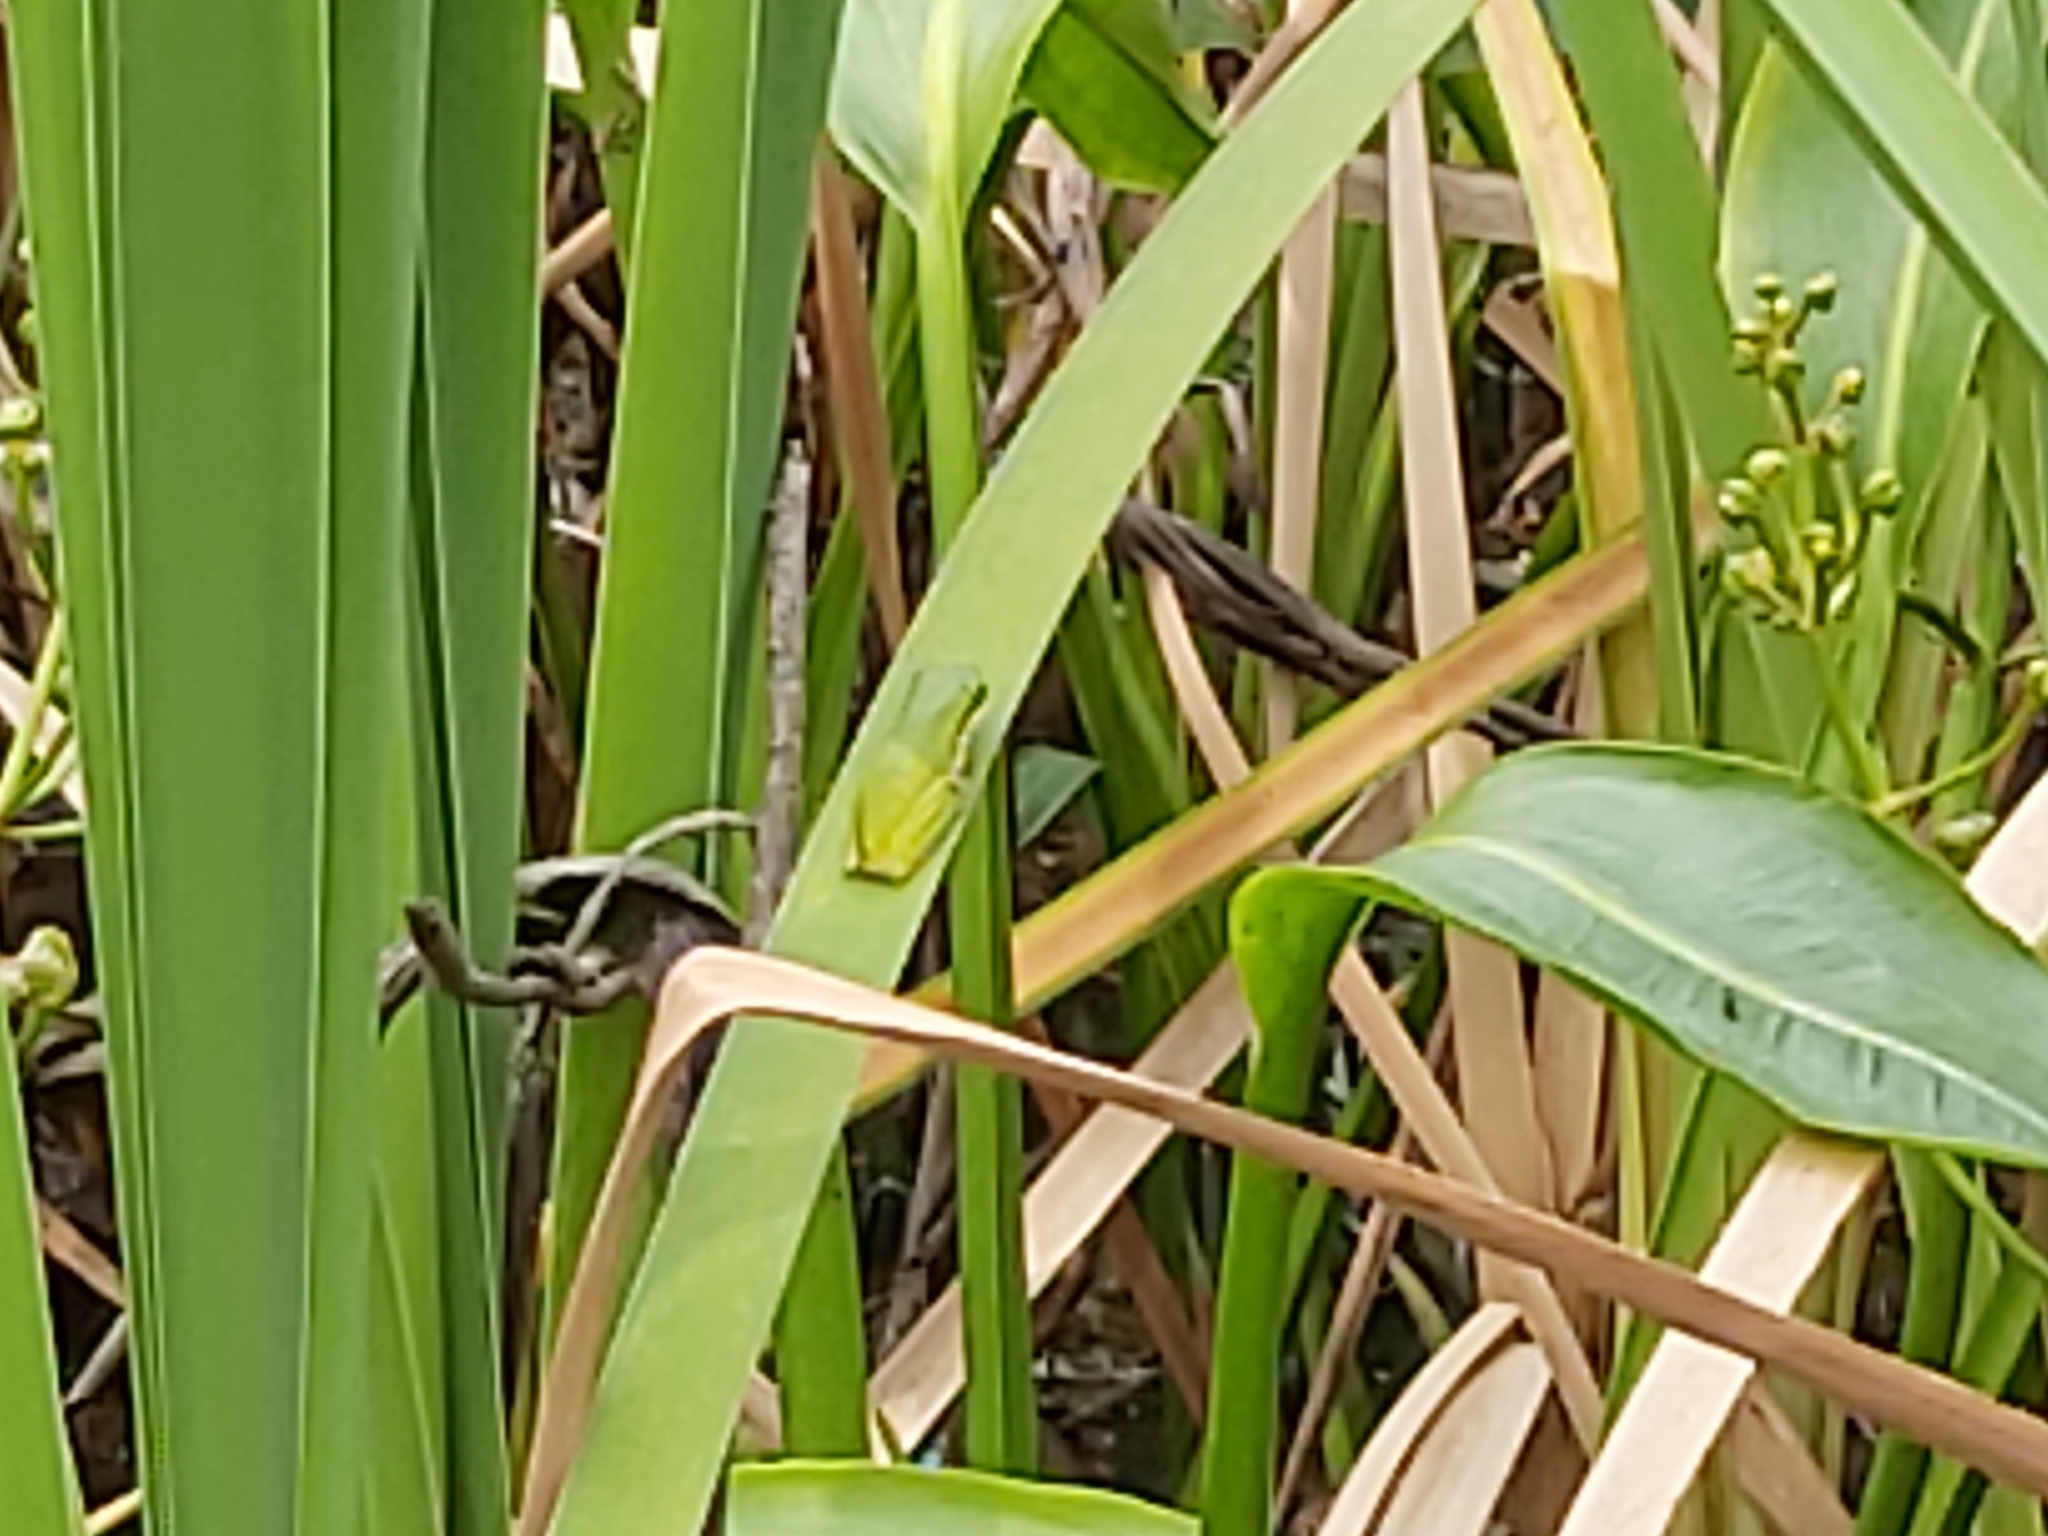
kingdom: Animalia
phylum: Chordata
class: Amphibia
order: Anura
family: Pelodryadidae
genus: Litoria
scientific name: Litoria fallax
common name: Eastern dwarf treefrog
